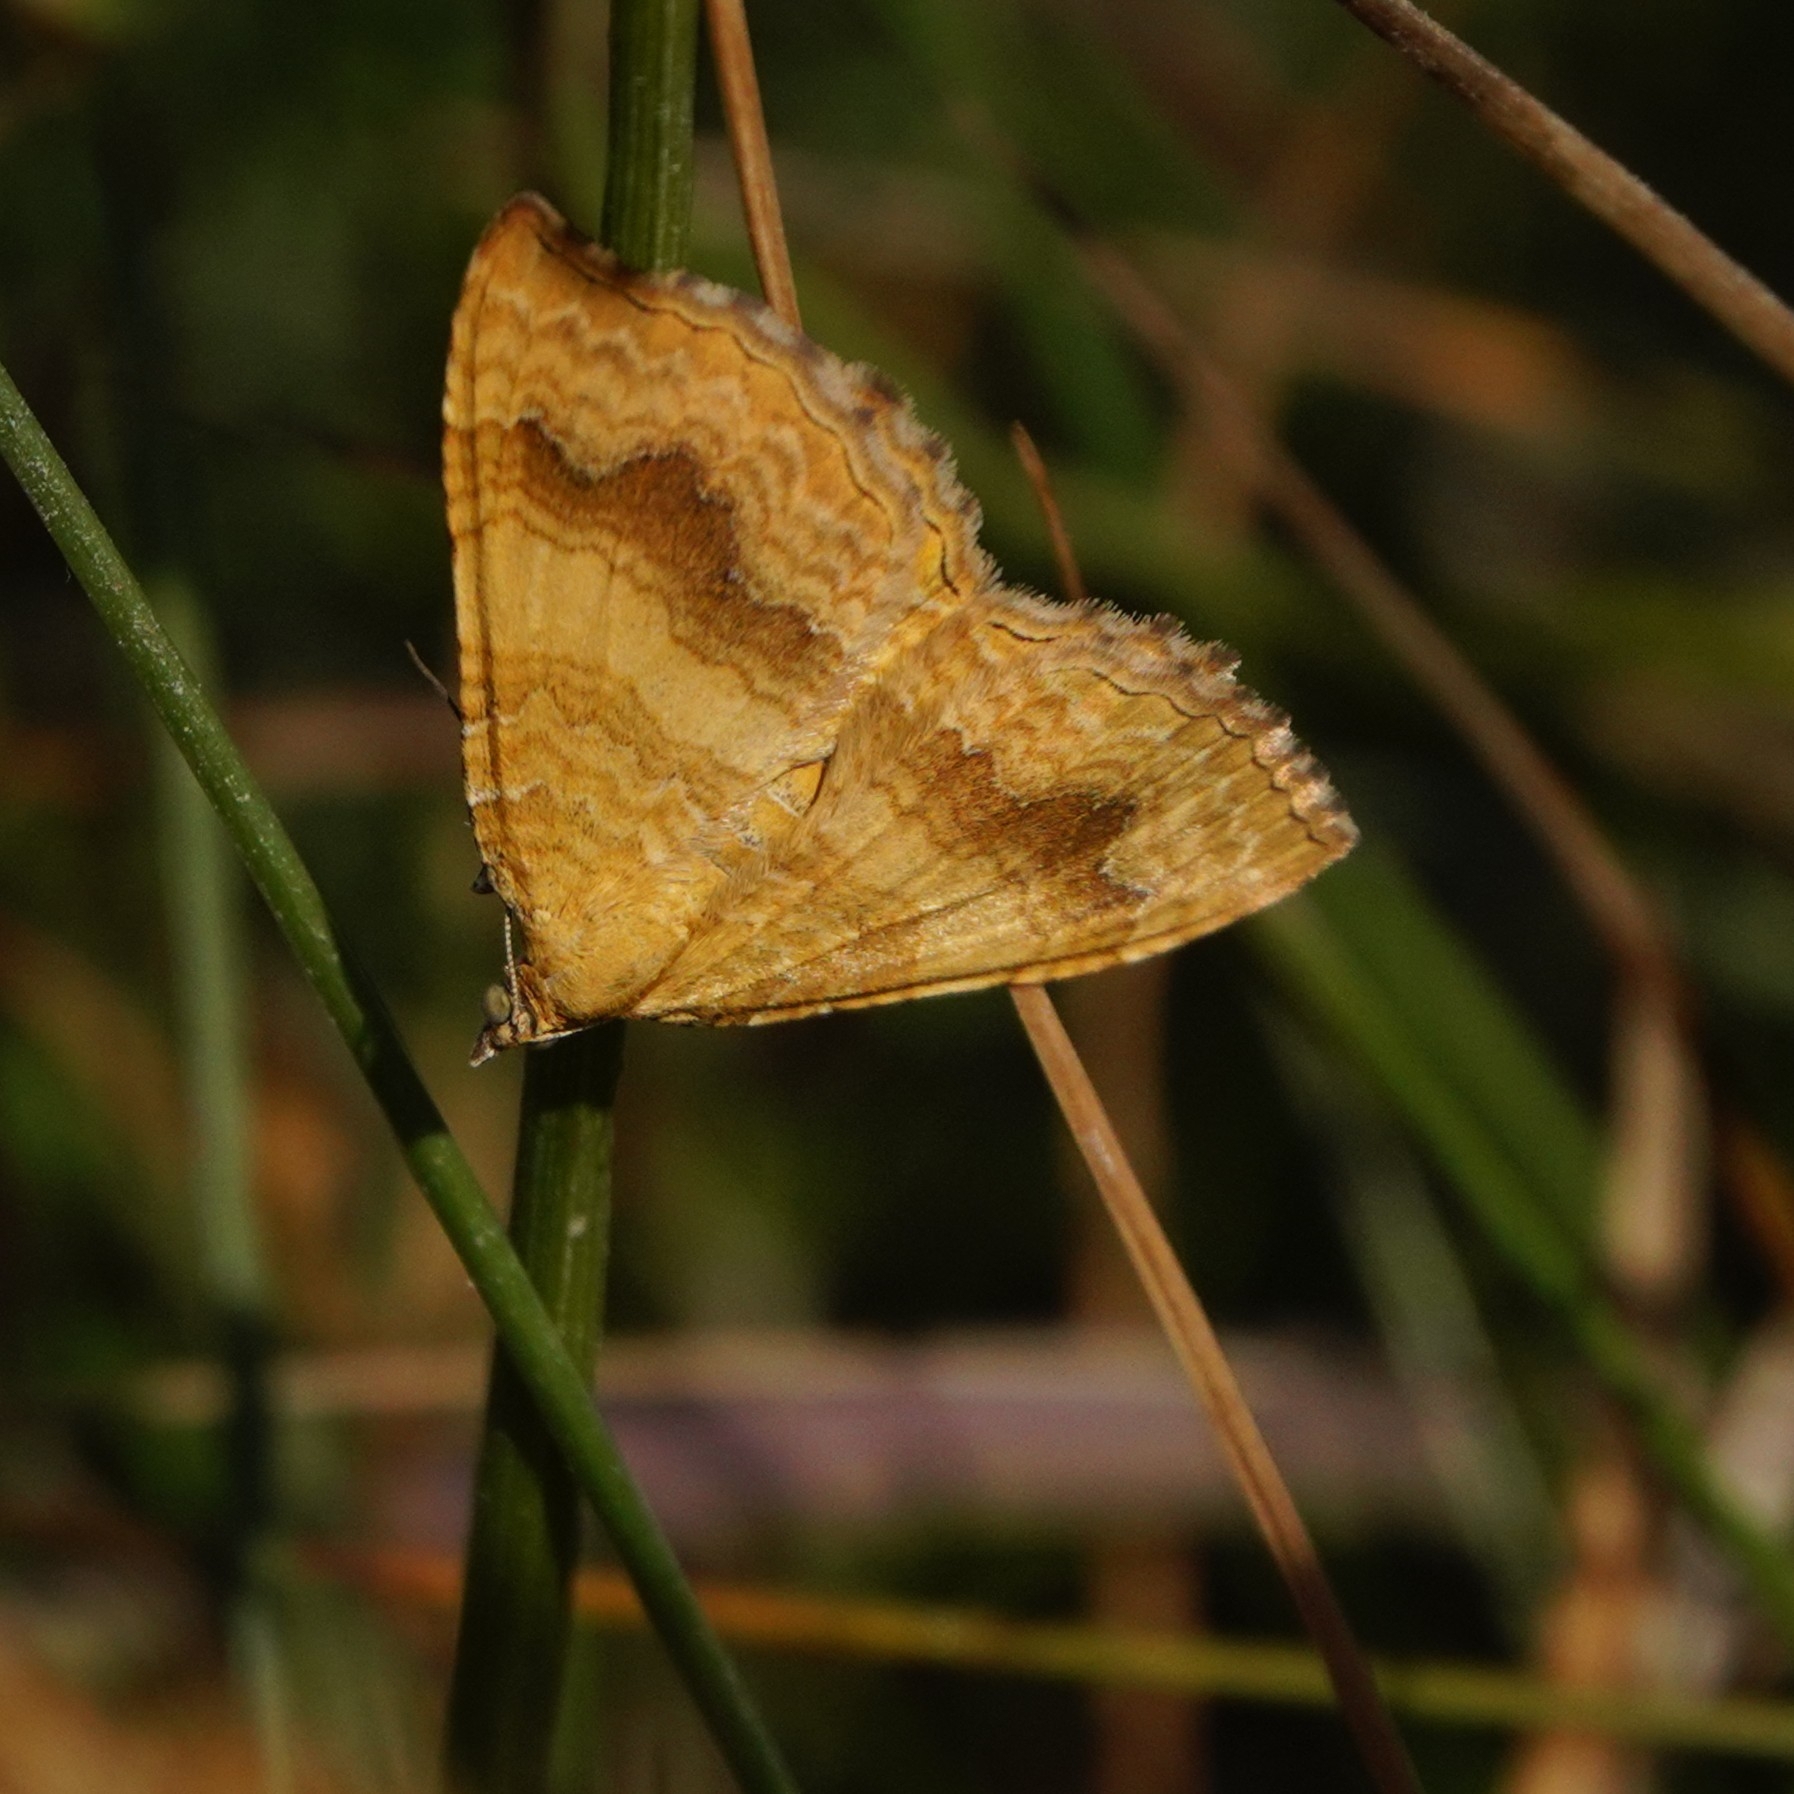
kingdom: Animalia
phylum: Arthropoda
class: Insecta
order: Lepidoptera
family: Geometridae
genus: Camptogramma
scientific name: Camptogramma bilineata
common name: Yellow shell
